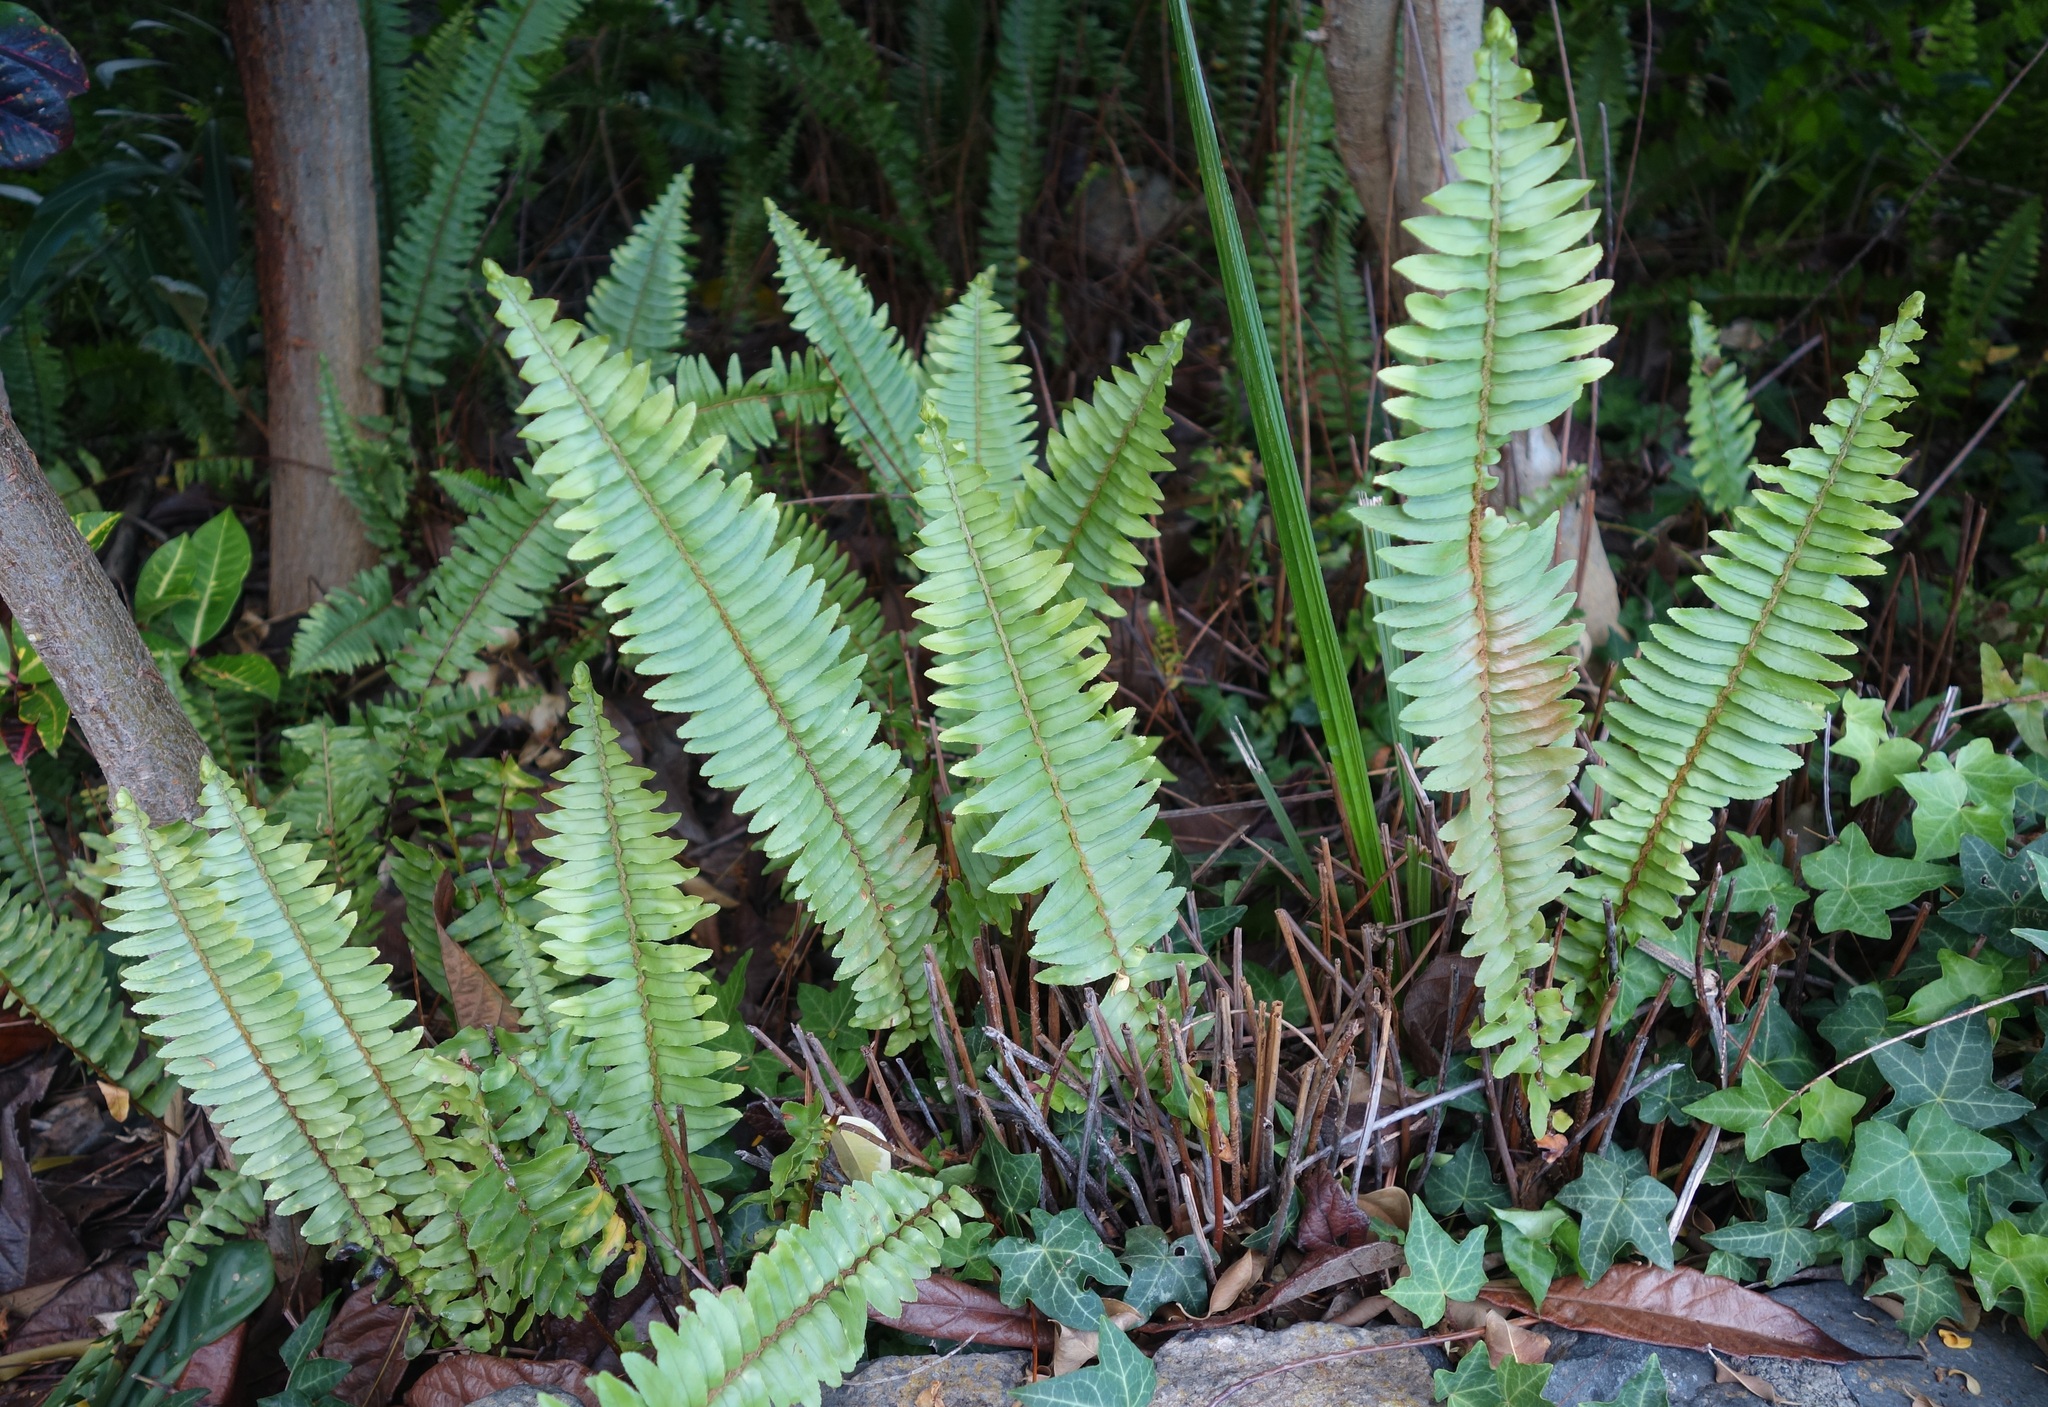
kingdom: Plantae
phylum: Tracheophyta
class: Polypodiopsida
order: Polypodiales
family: Nephrolepidaceae
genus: Nephrolepis
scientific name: Nephrolepis cordifolia
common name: Narrow swordfern
